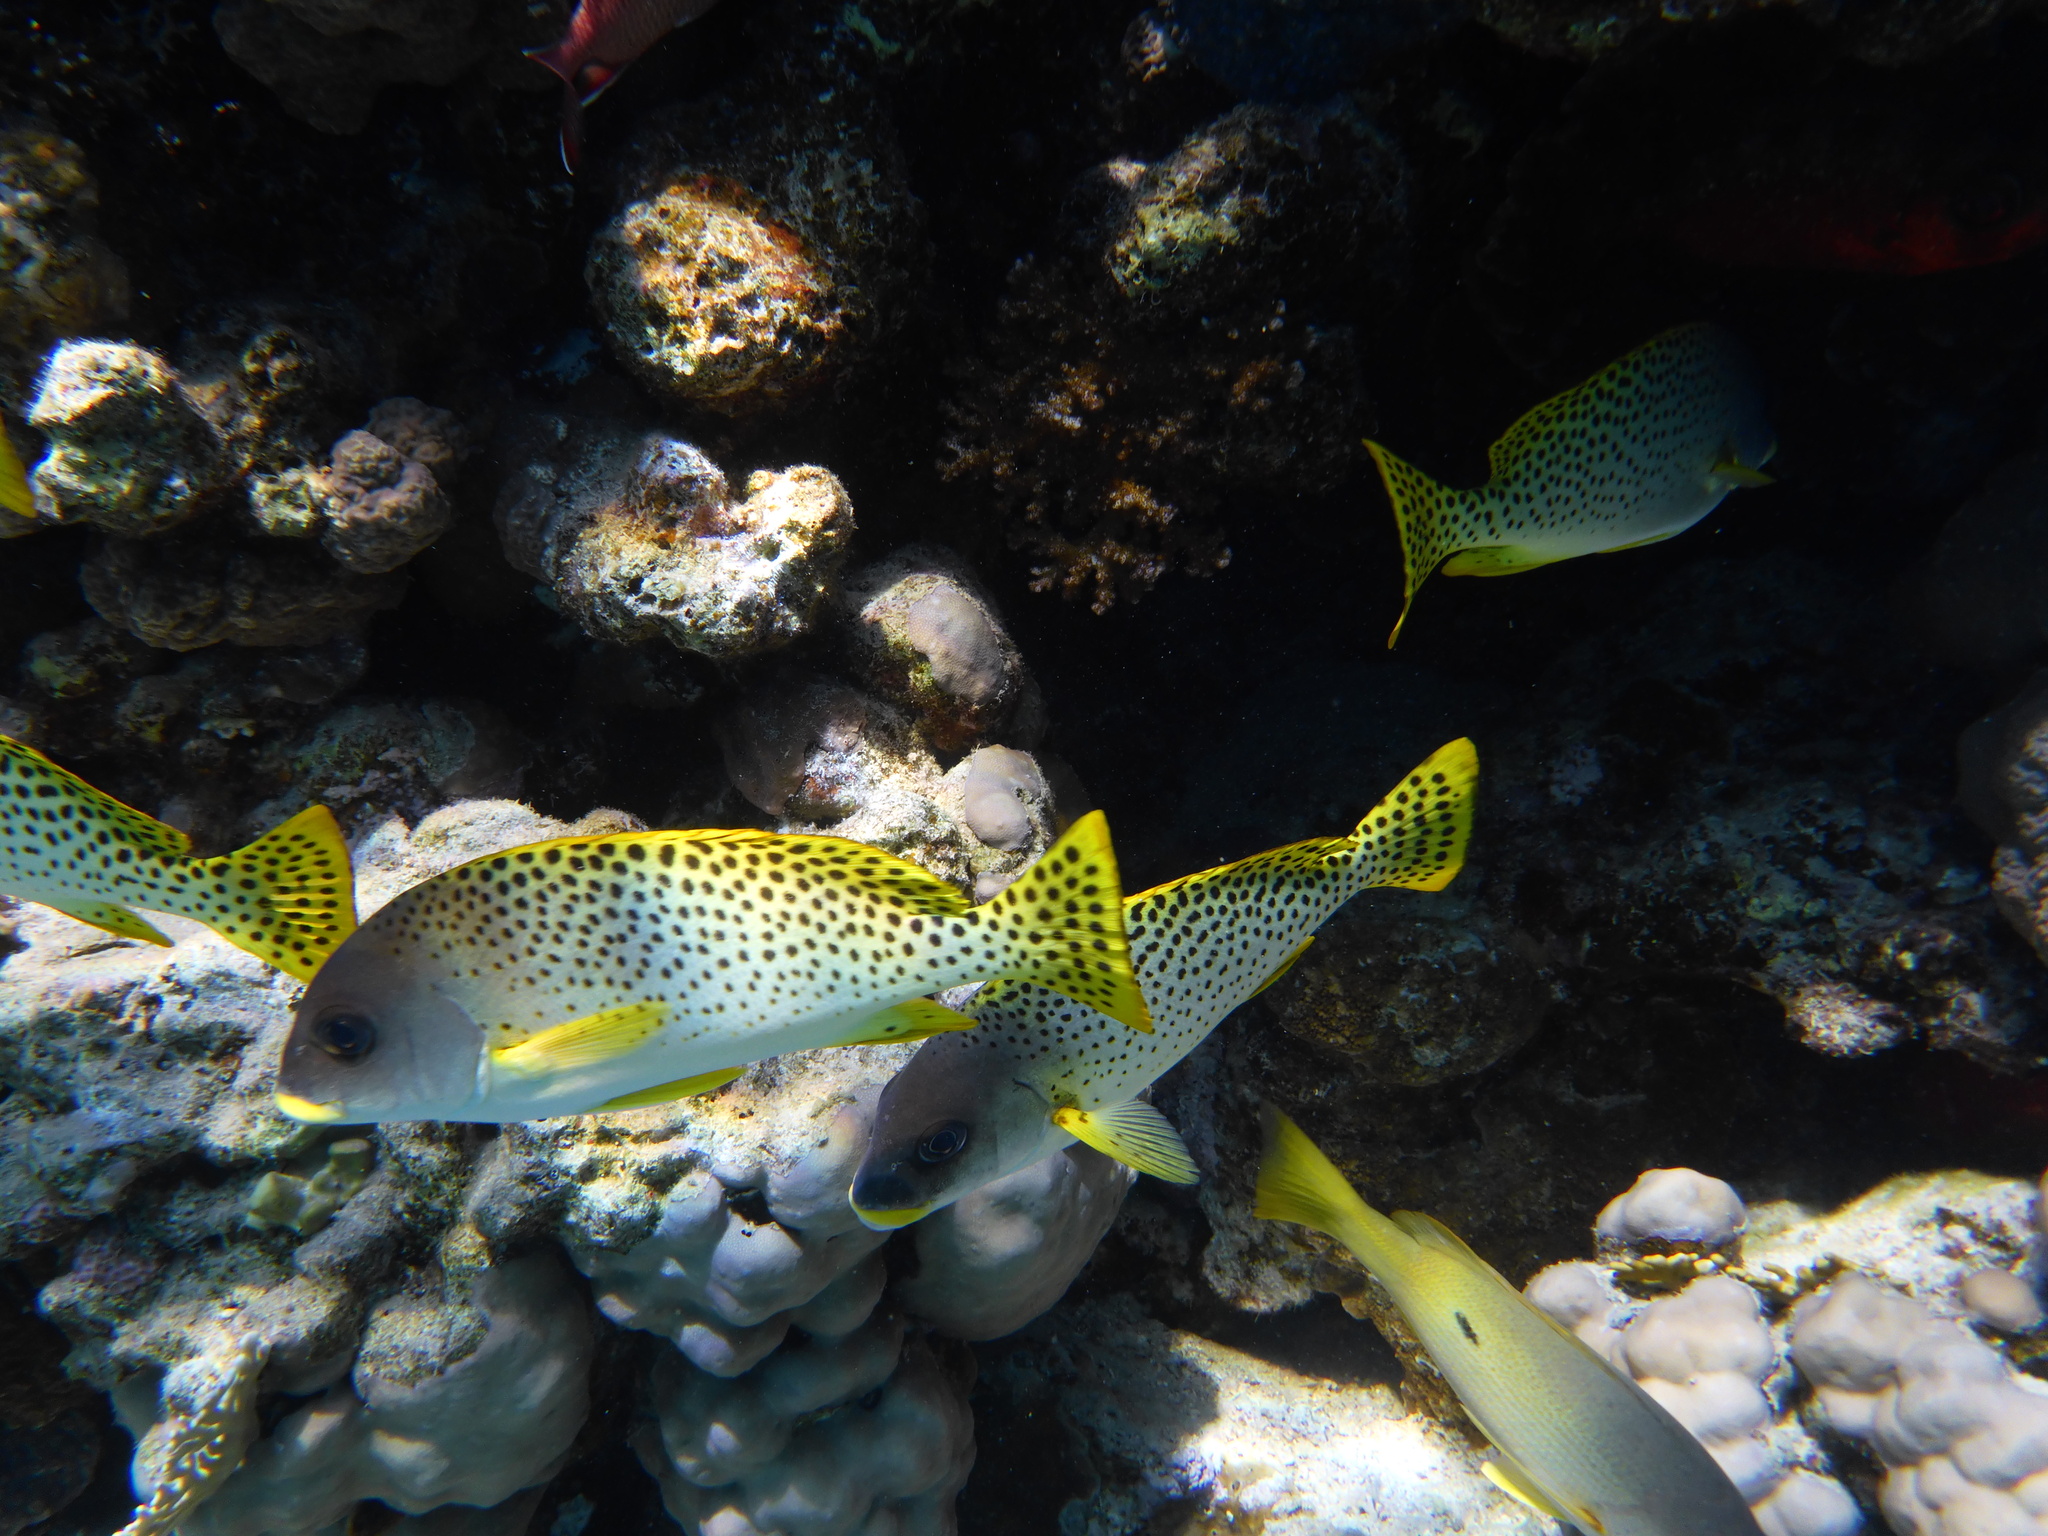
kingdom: Animalia
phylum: Chordata
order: Perciformes
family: Haemulidae
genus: Plectorhinchus
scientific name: Plectorhinchus gaterinus
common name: Blackspotted rubberlip
